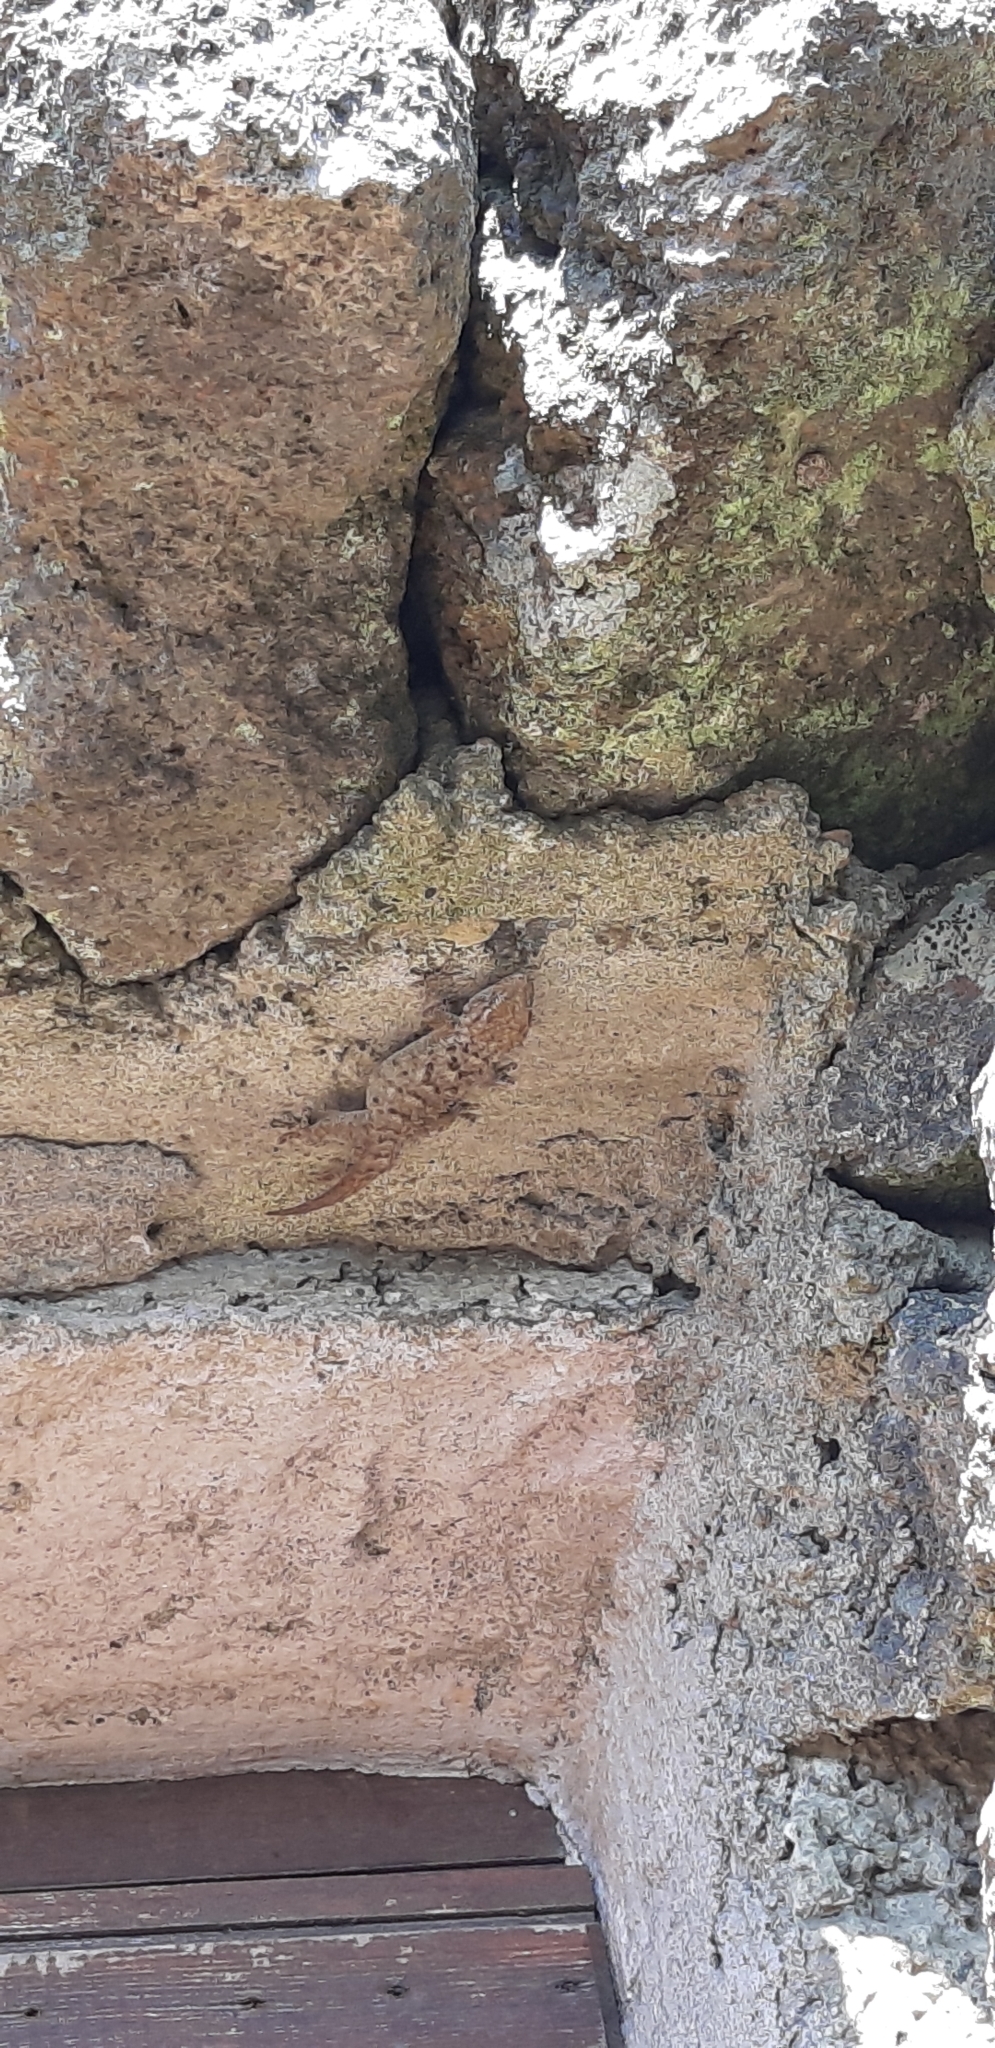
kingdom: Animalia
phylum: Chordata
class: Squamata
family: Phyllodactylidae
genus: Tarentola
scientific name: Tarentola mauritanica
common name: Moorish gecko
